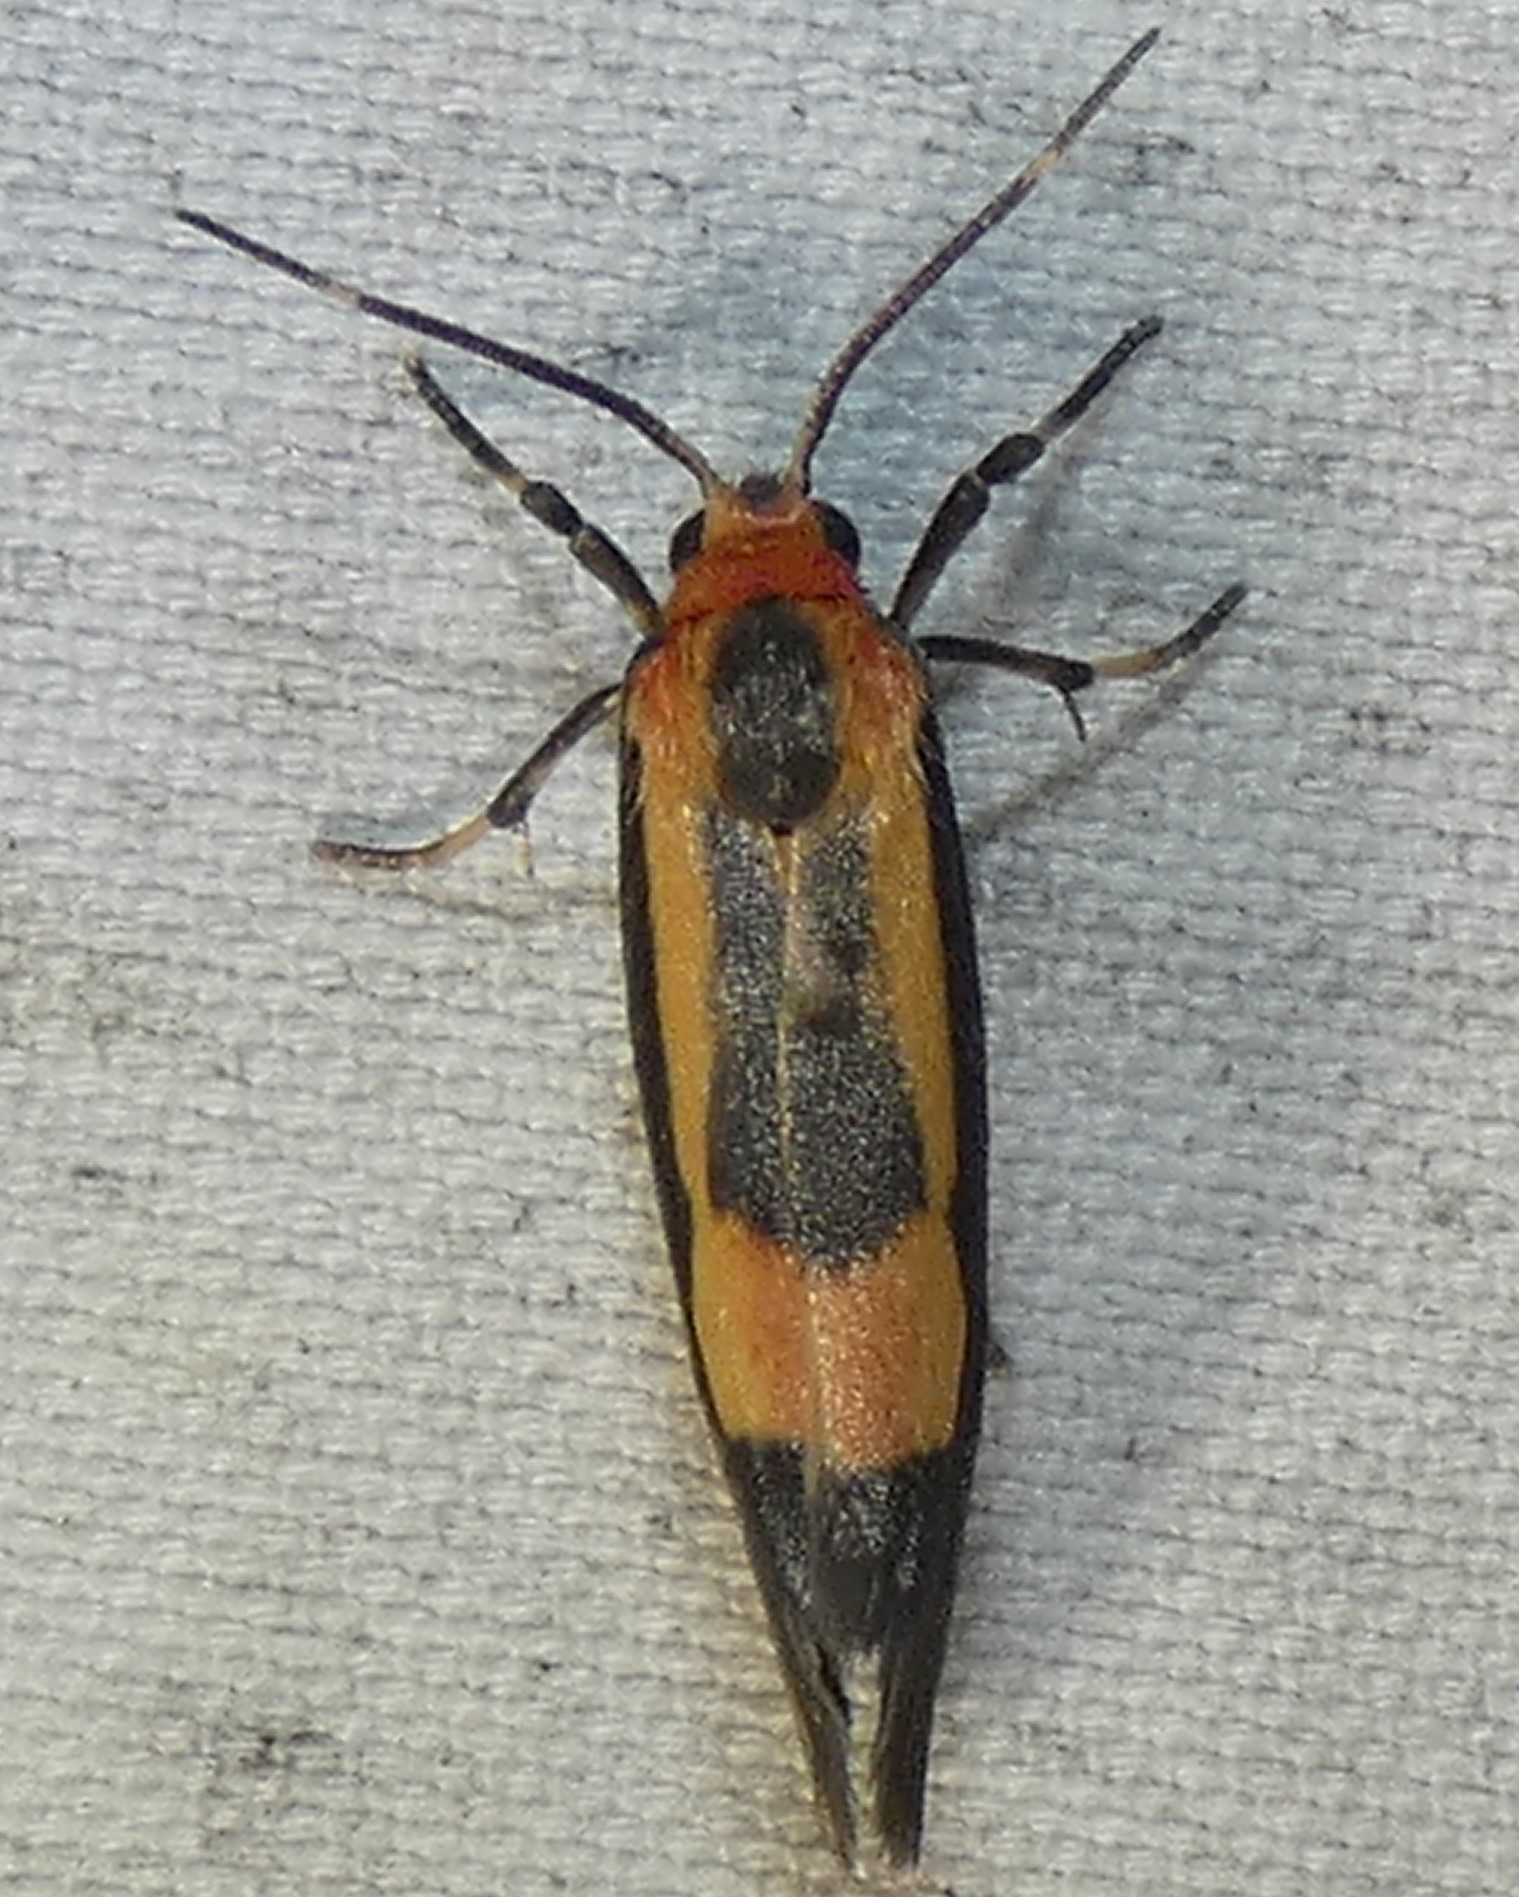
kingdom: Animalia
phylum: Arthropoda
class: Insecta
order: Lepidoptera
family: Erebidae
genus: Cisthene
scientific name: Cisthene packardii
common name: Packard's lichen moth
